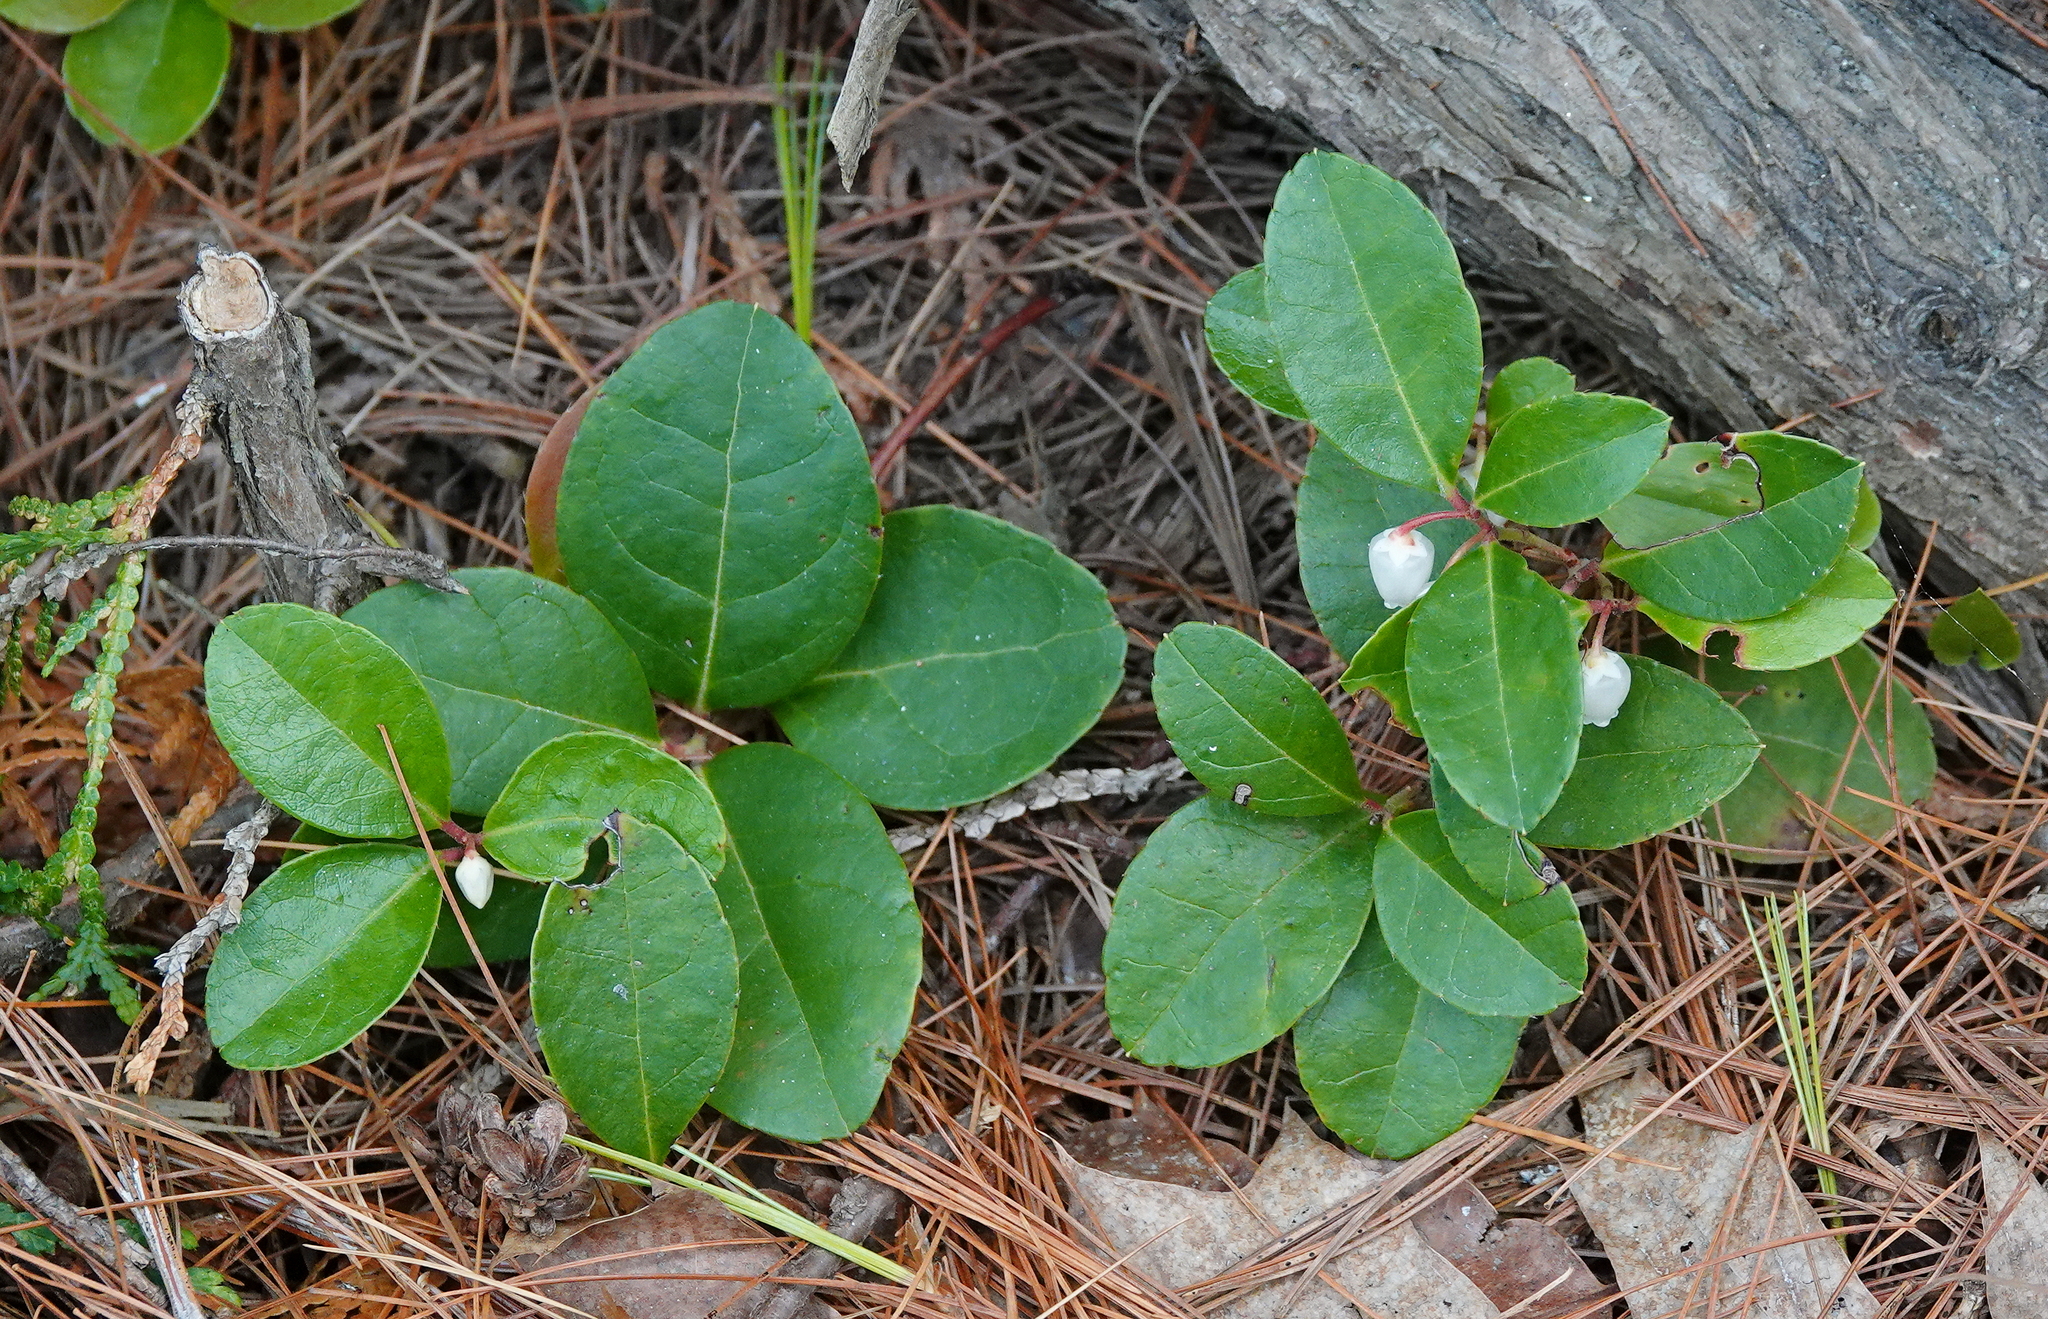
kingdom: Plantae
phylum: Tracheophyta
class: Magnoliopsida
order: Ericales
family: Ericaceae
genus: Gaultheria
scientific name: Gaultheria procumbens
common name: Checkerberry
